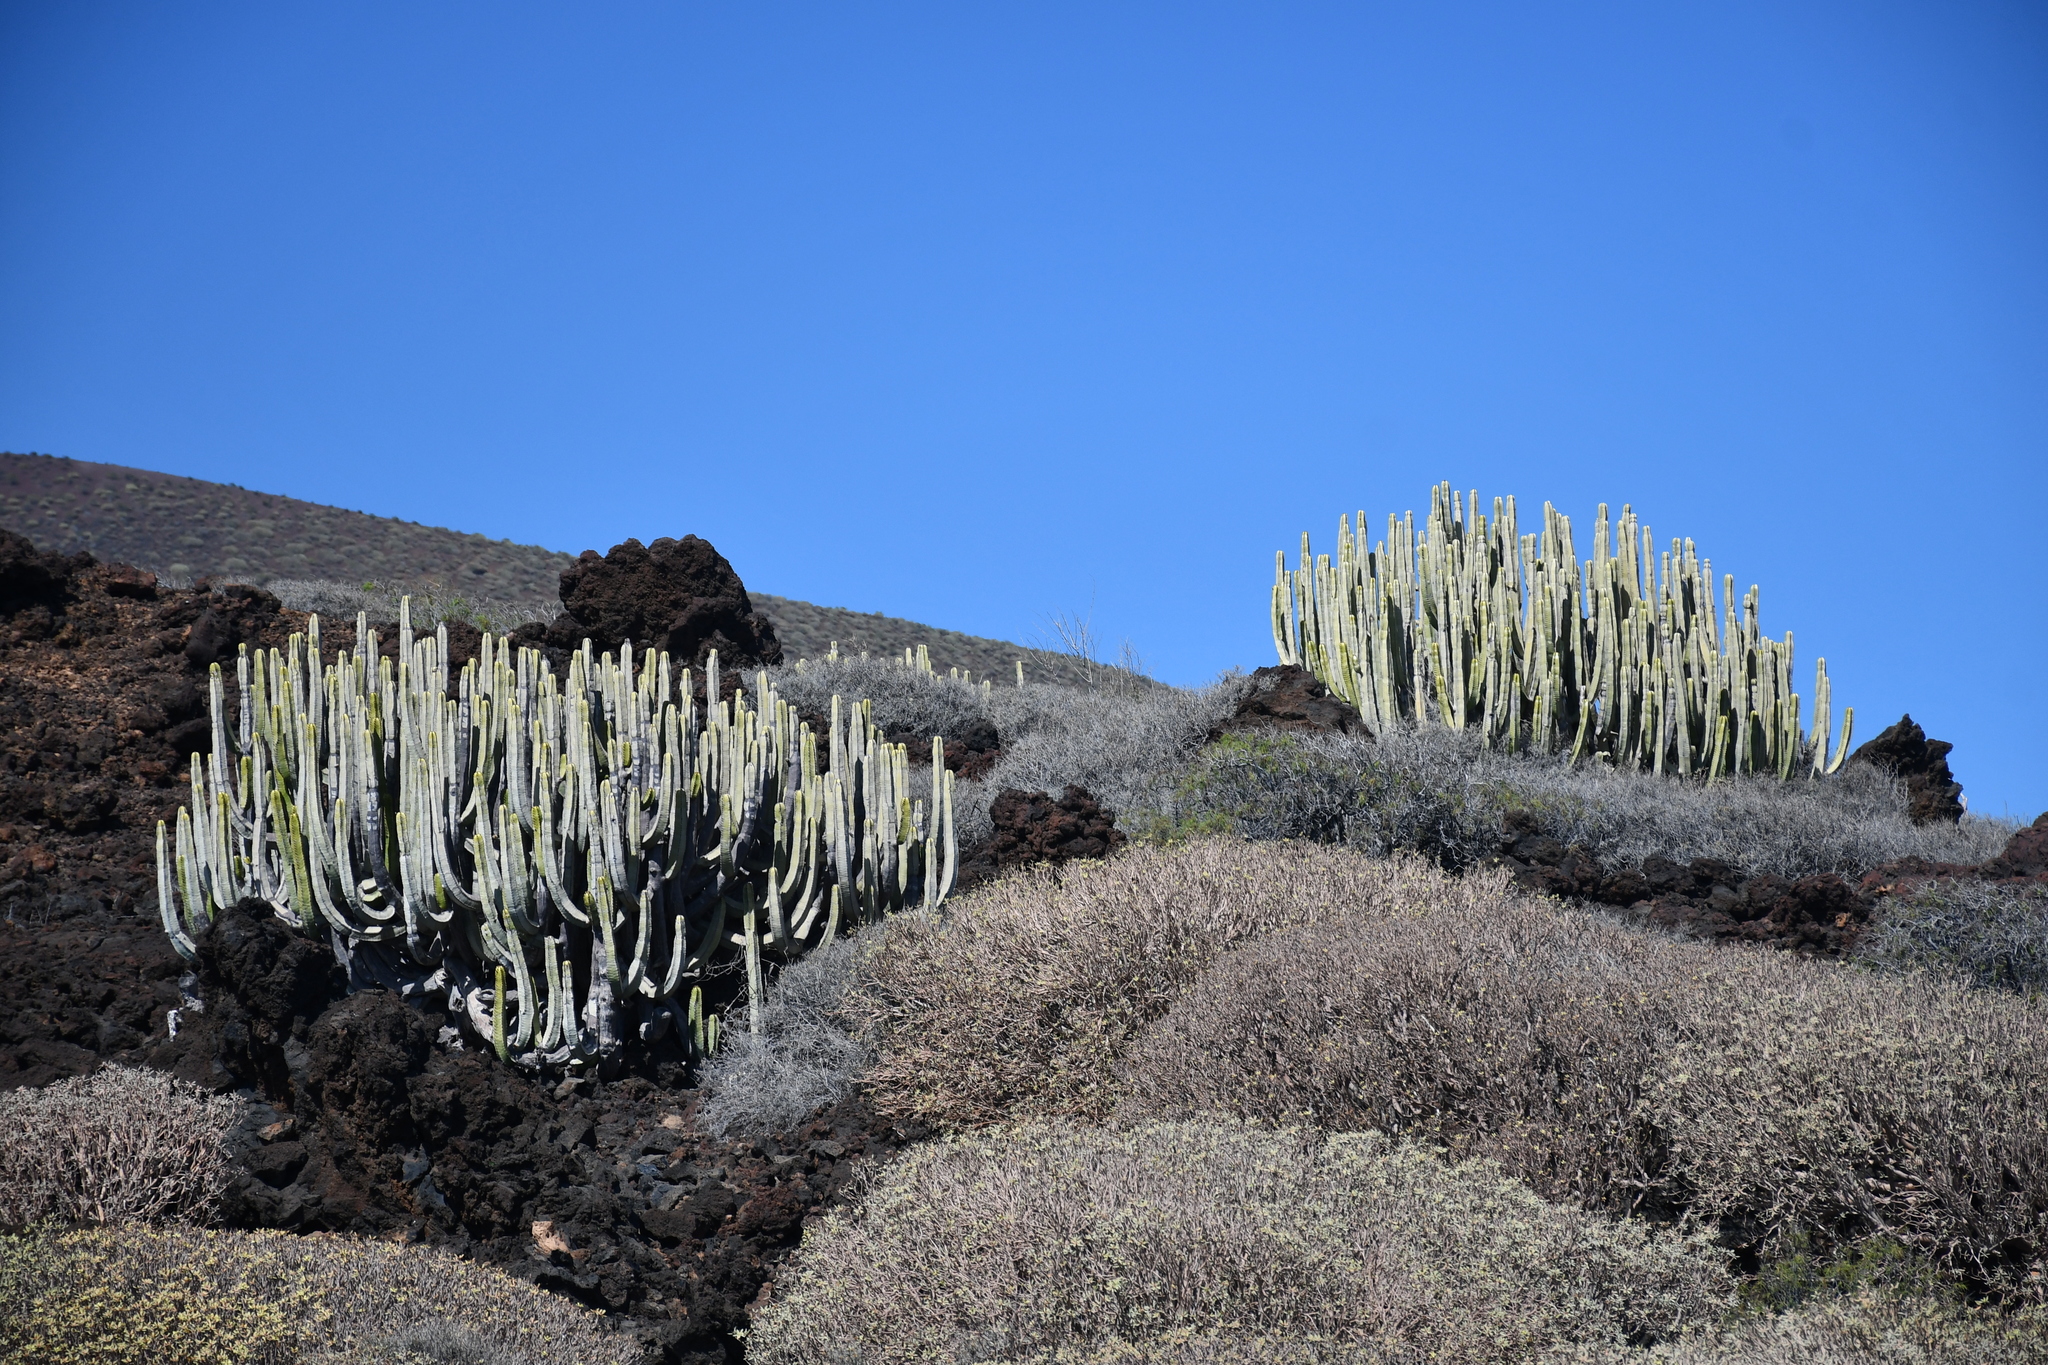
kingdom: Plantae
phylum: Tracheophyta
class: Magnoliopsida
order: Malpighiales
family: Euphorbiaceae
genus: Euphorbia
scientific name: Euphorbia canariensis
